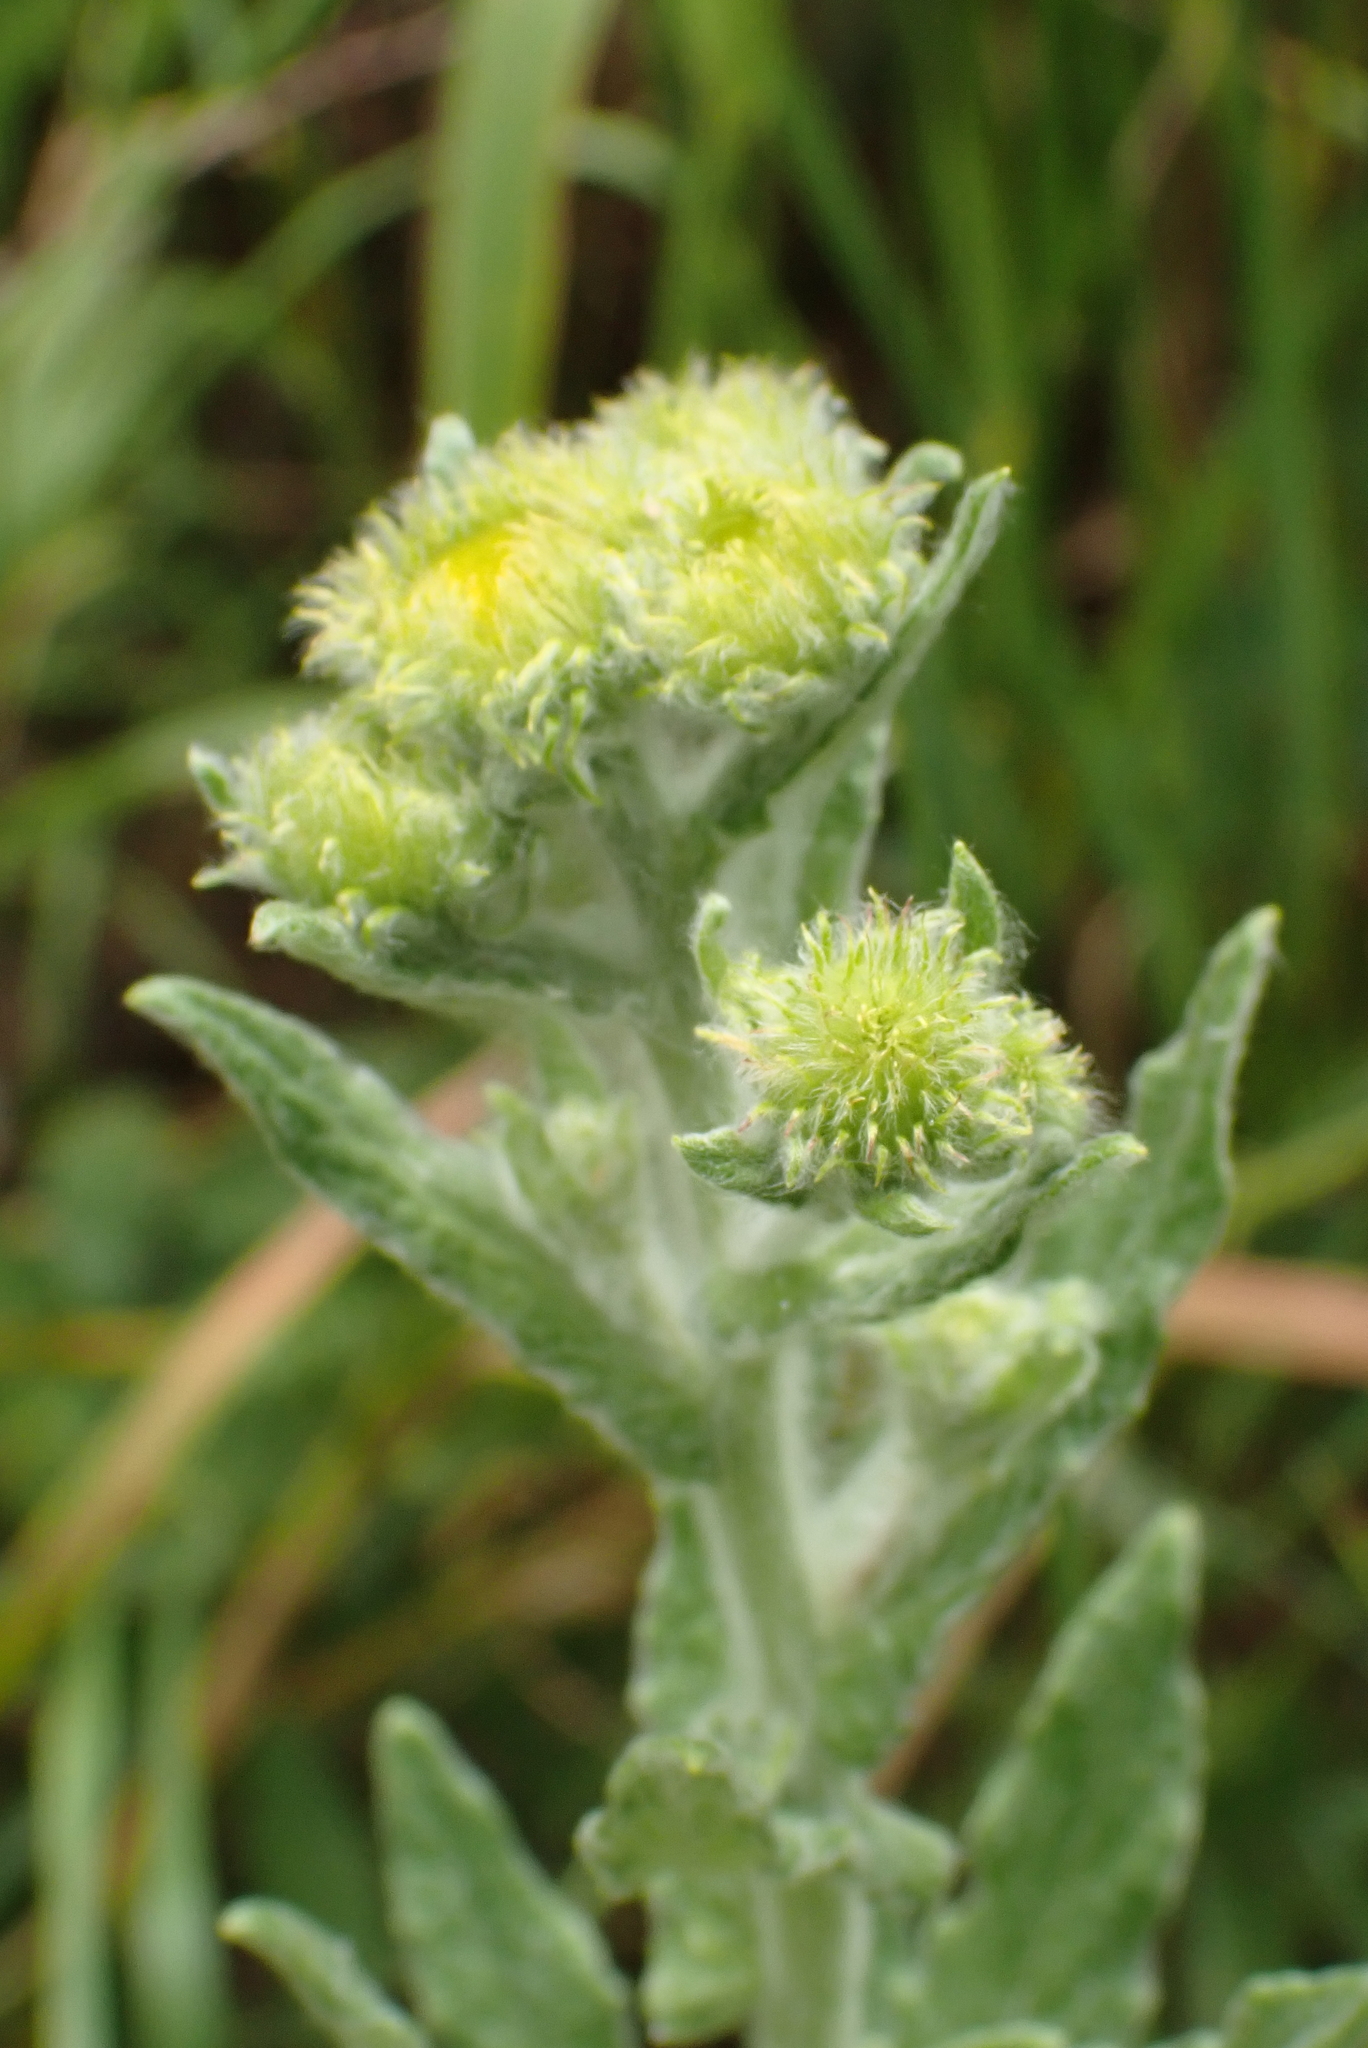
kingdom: Plantae
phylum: Tracheophyta
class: Magnoliopsida
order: Asterales
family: Asteraceae
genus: Pulicaria
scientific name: Pulicaria dysenterica
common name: Common fleabane
